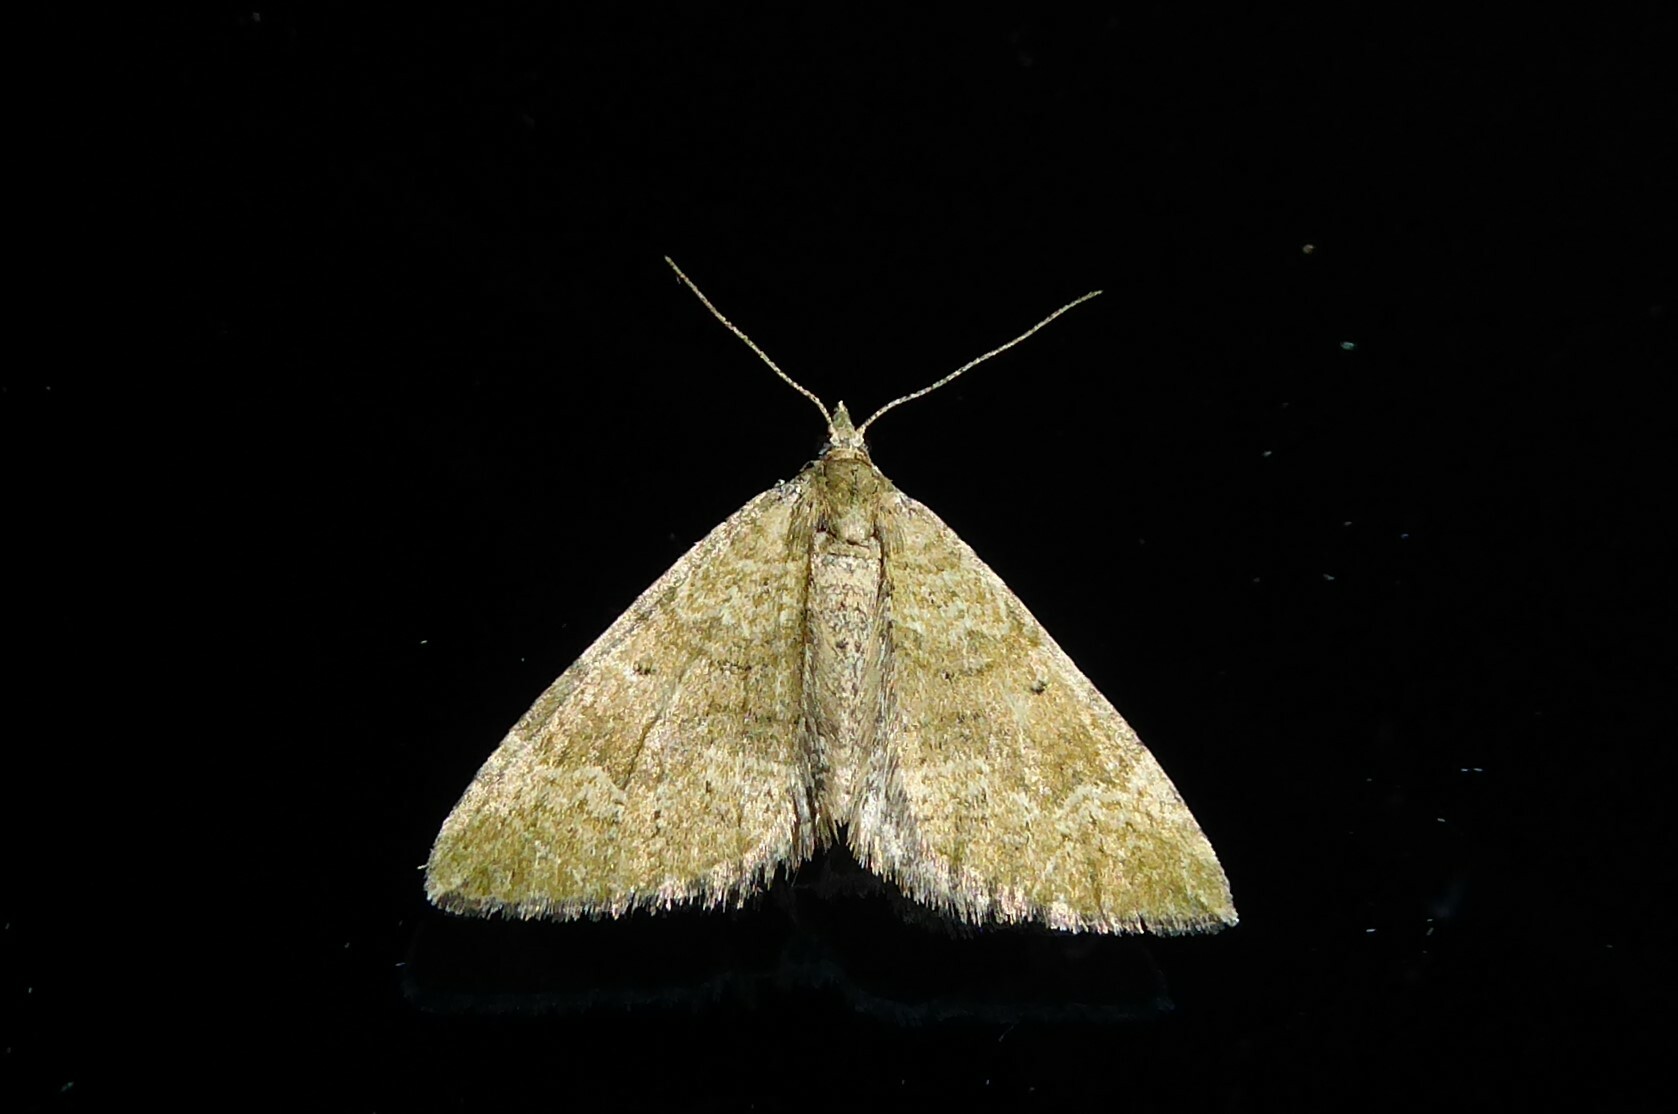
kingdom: Animalia
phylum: Arthropoda
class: Insecta
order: Lepidoptera
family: Geometridae
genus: Epyaxa
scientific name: Epyaxa rosearia
